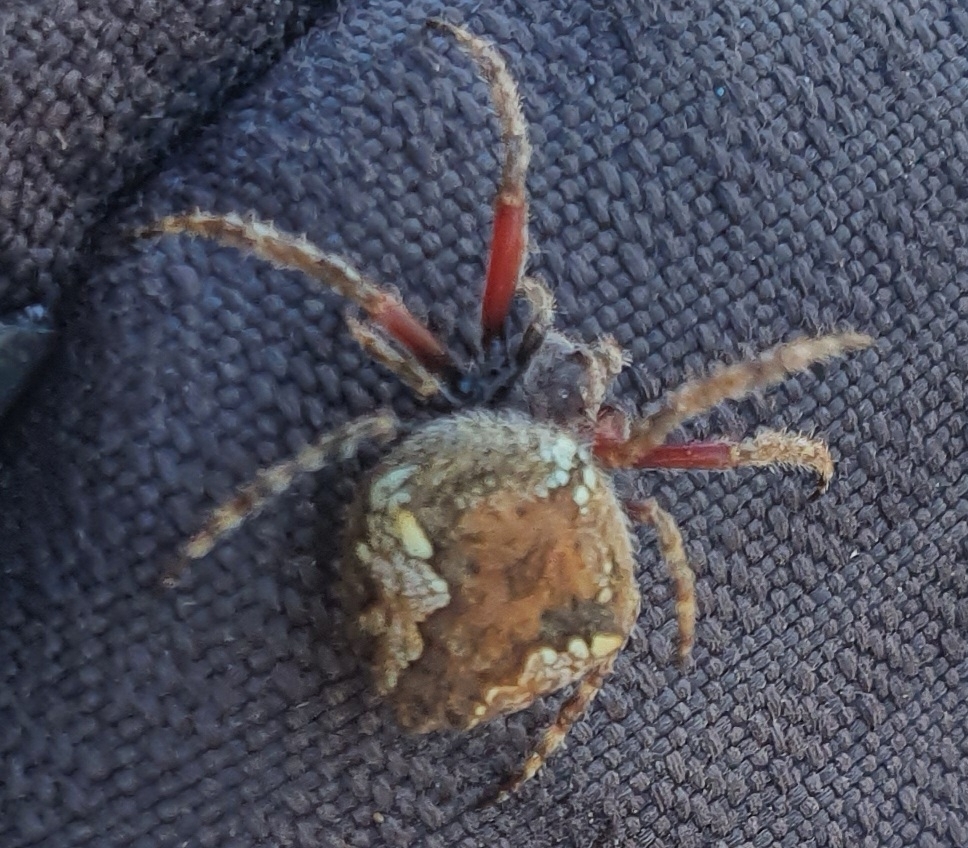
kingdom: Animalia
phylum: Arthropoda
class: Arachnida
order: Araneae
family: Araneidae
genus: Eriophora
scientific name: Eriophora pustulosa
